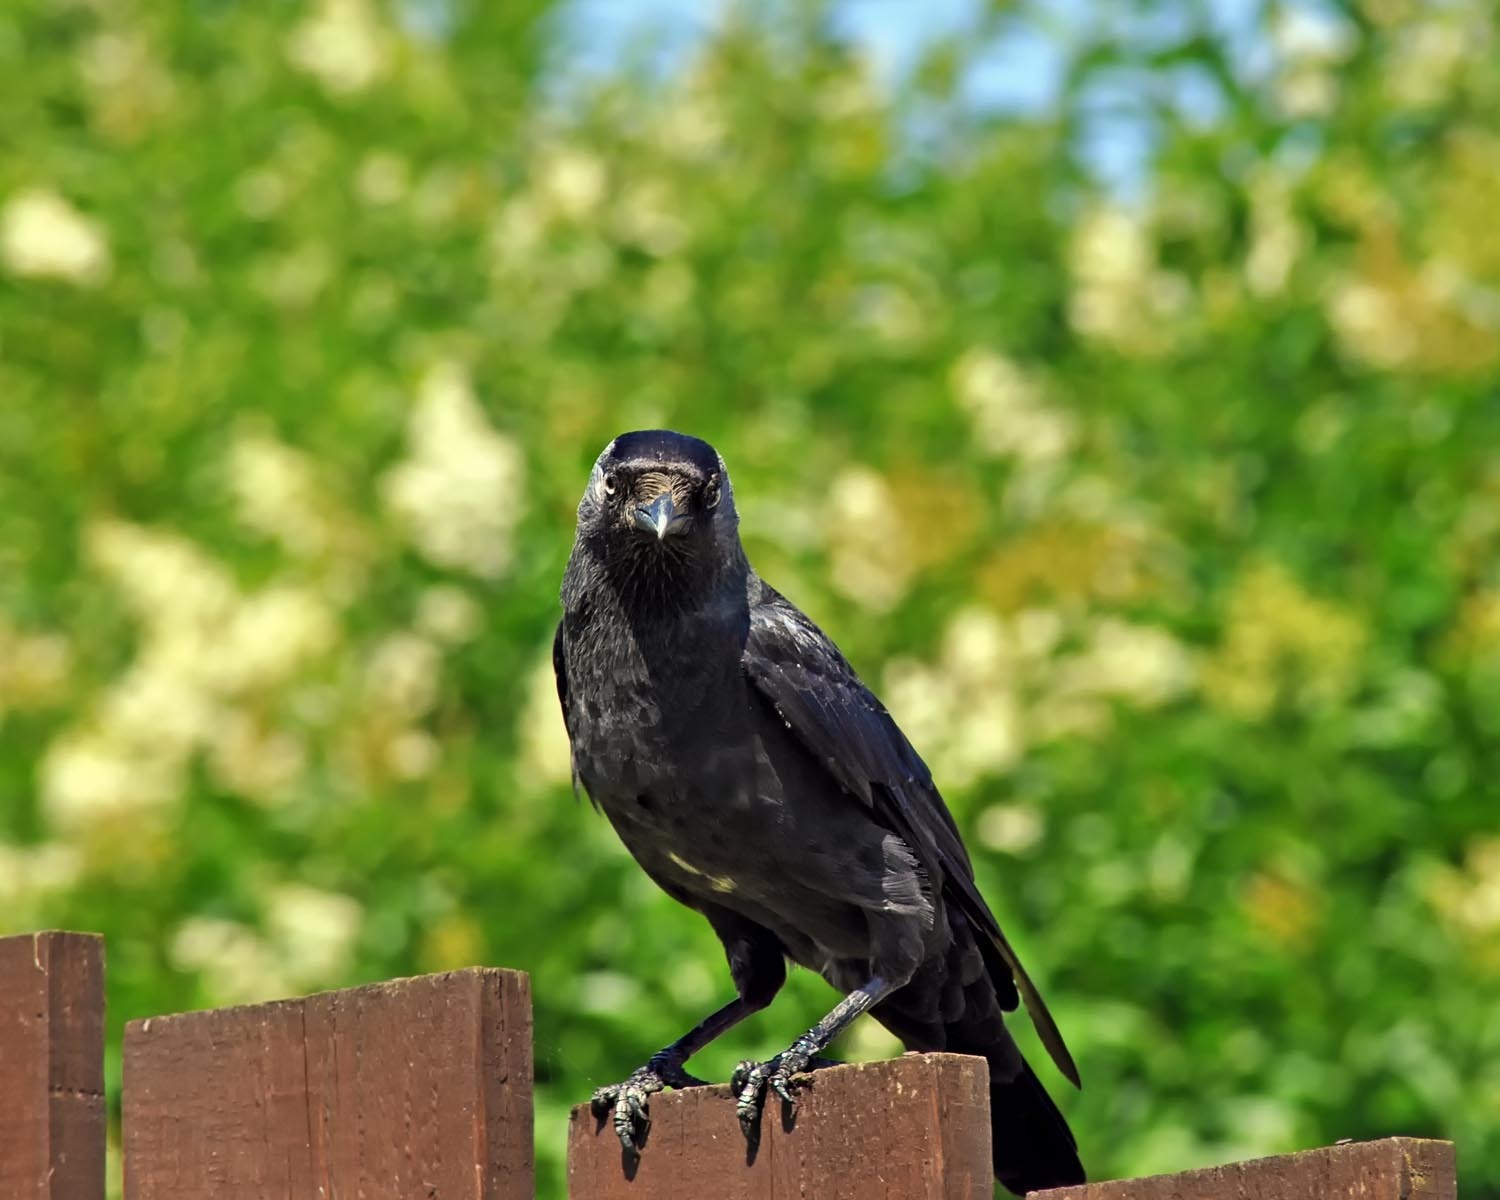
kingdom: Animalia
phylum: Chordata
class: Aves
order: Passeriformes
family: Corvidae
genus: Coloeus
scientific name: Coloeus monedula
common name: Western jackdaw
